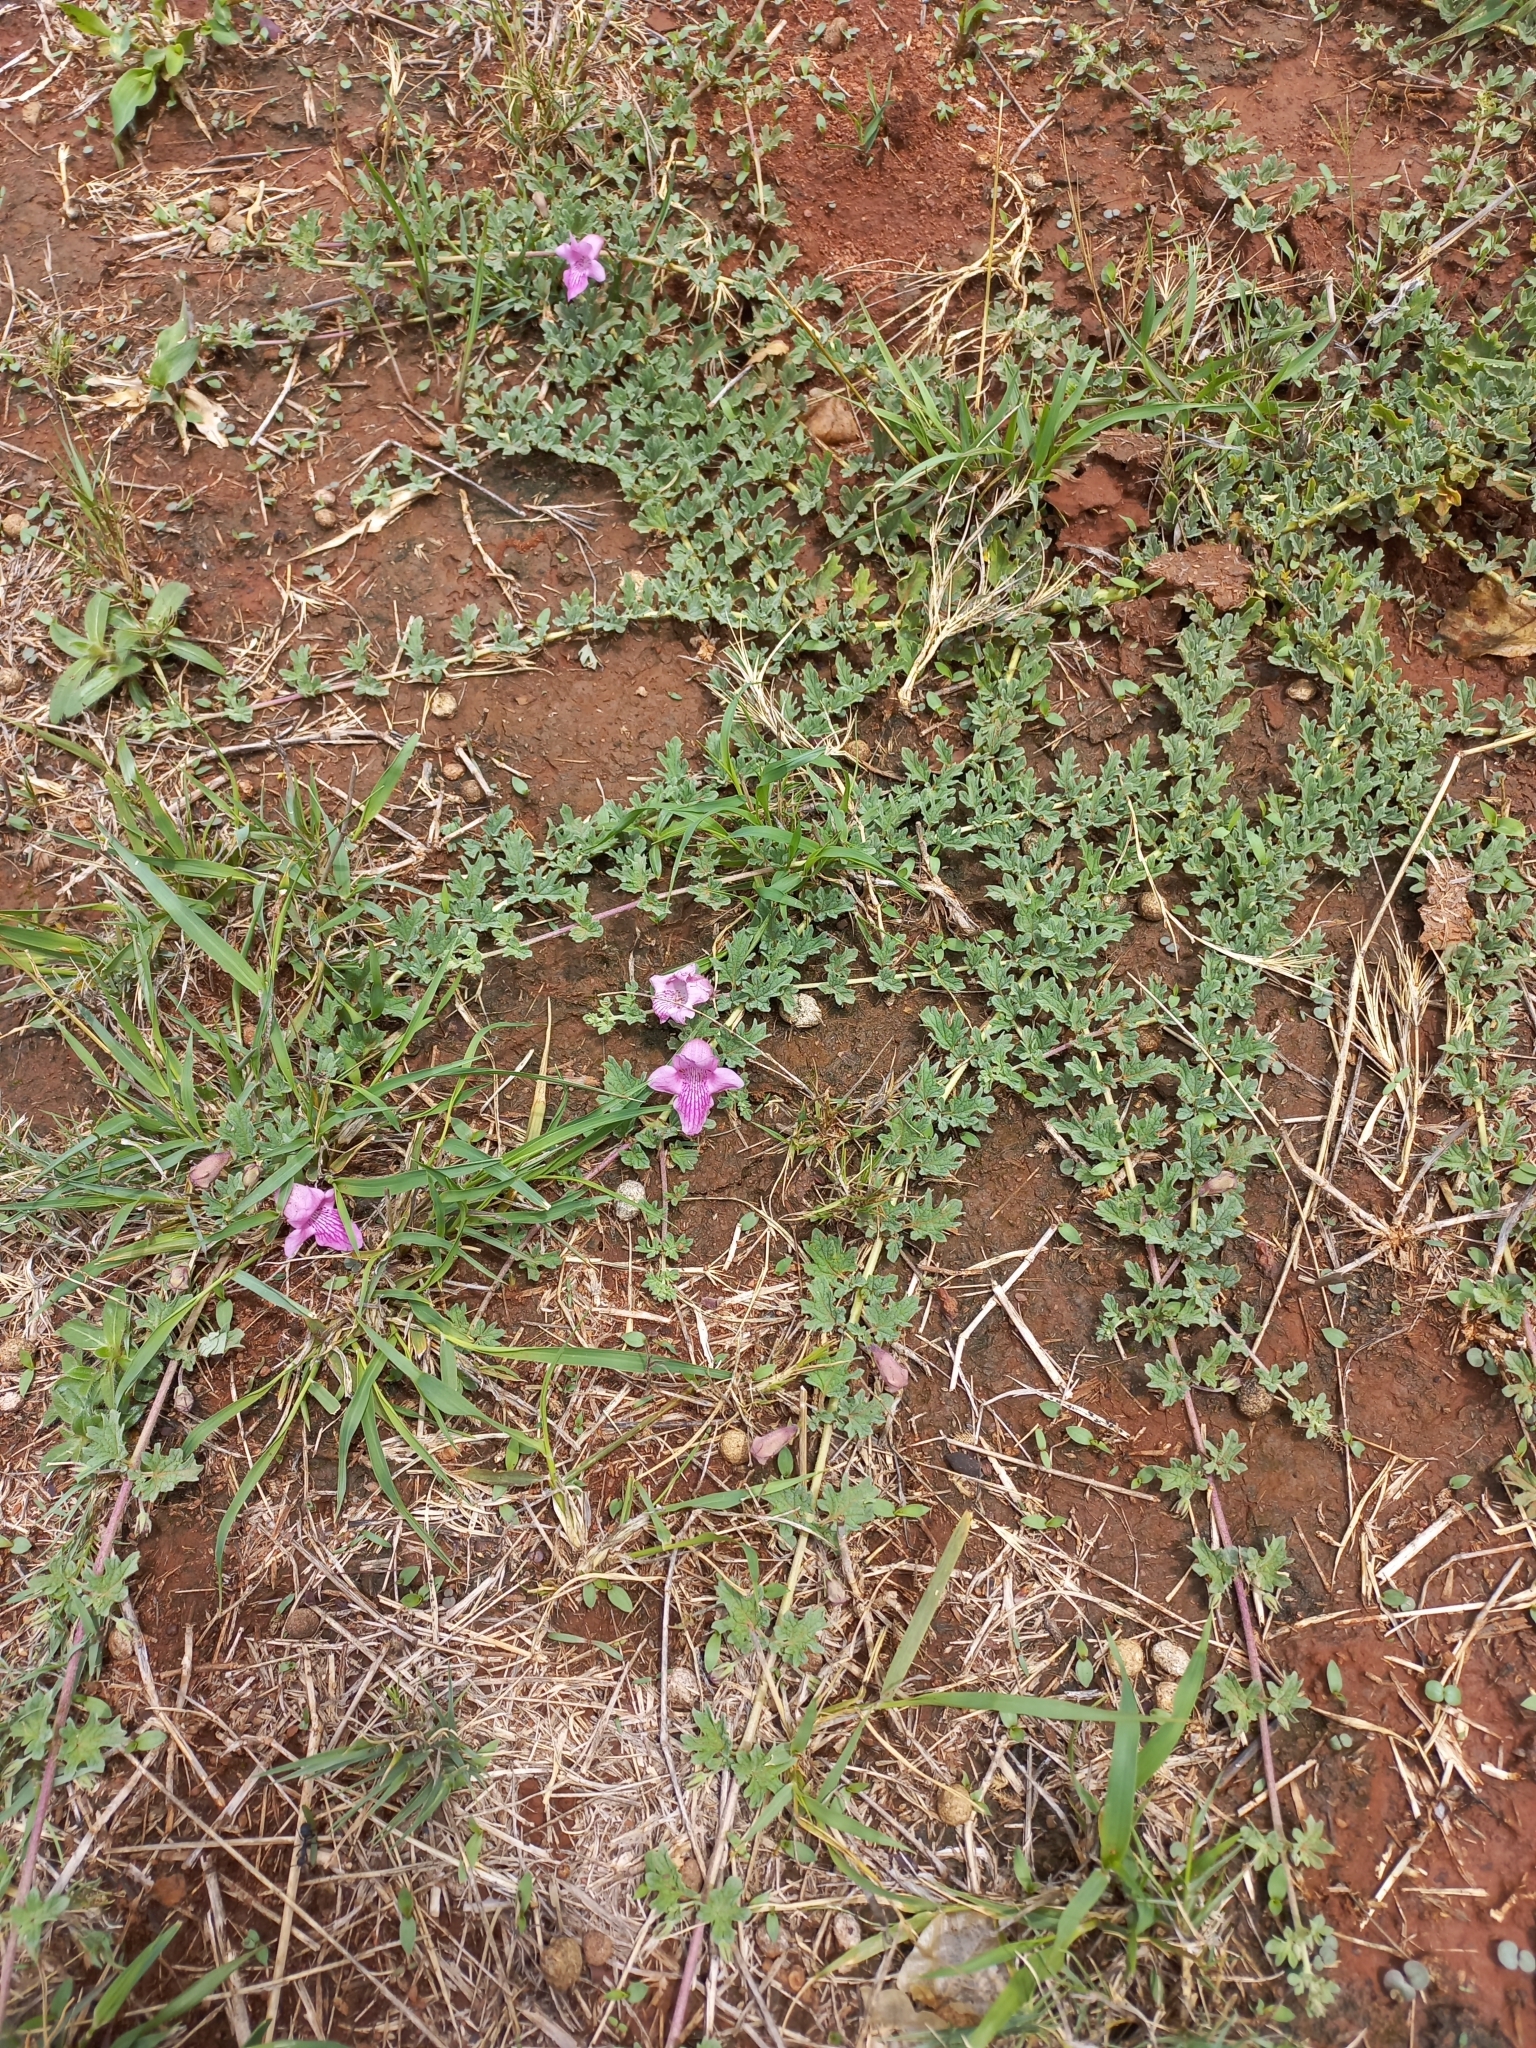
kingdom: Plantae
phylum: Tracheophyta
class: Magnoliopsida
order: Lamiales
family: Pedaliaceae
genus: Dicerocaryum
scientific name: Dicerocaryum senecioides
